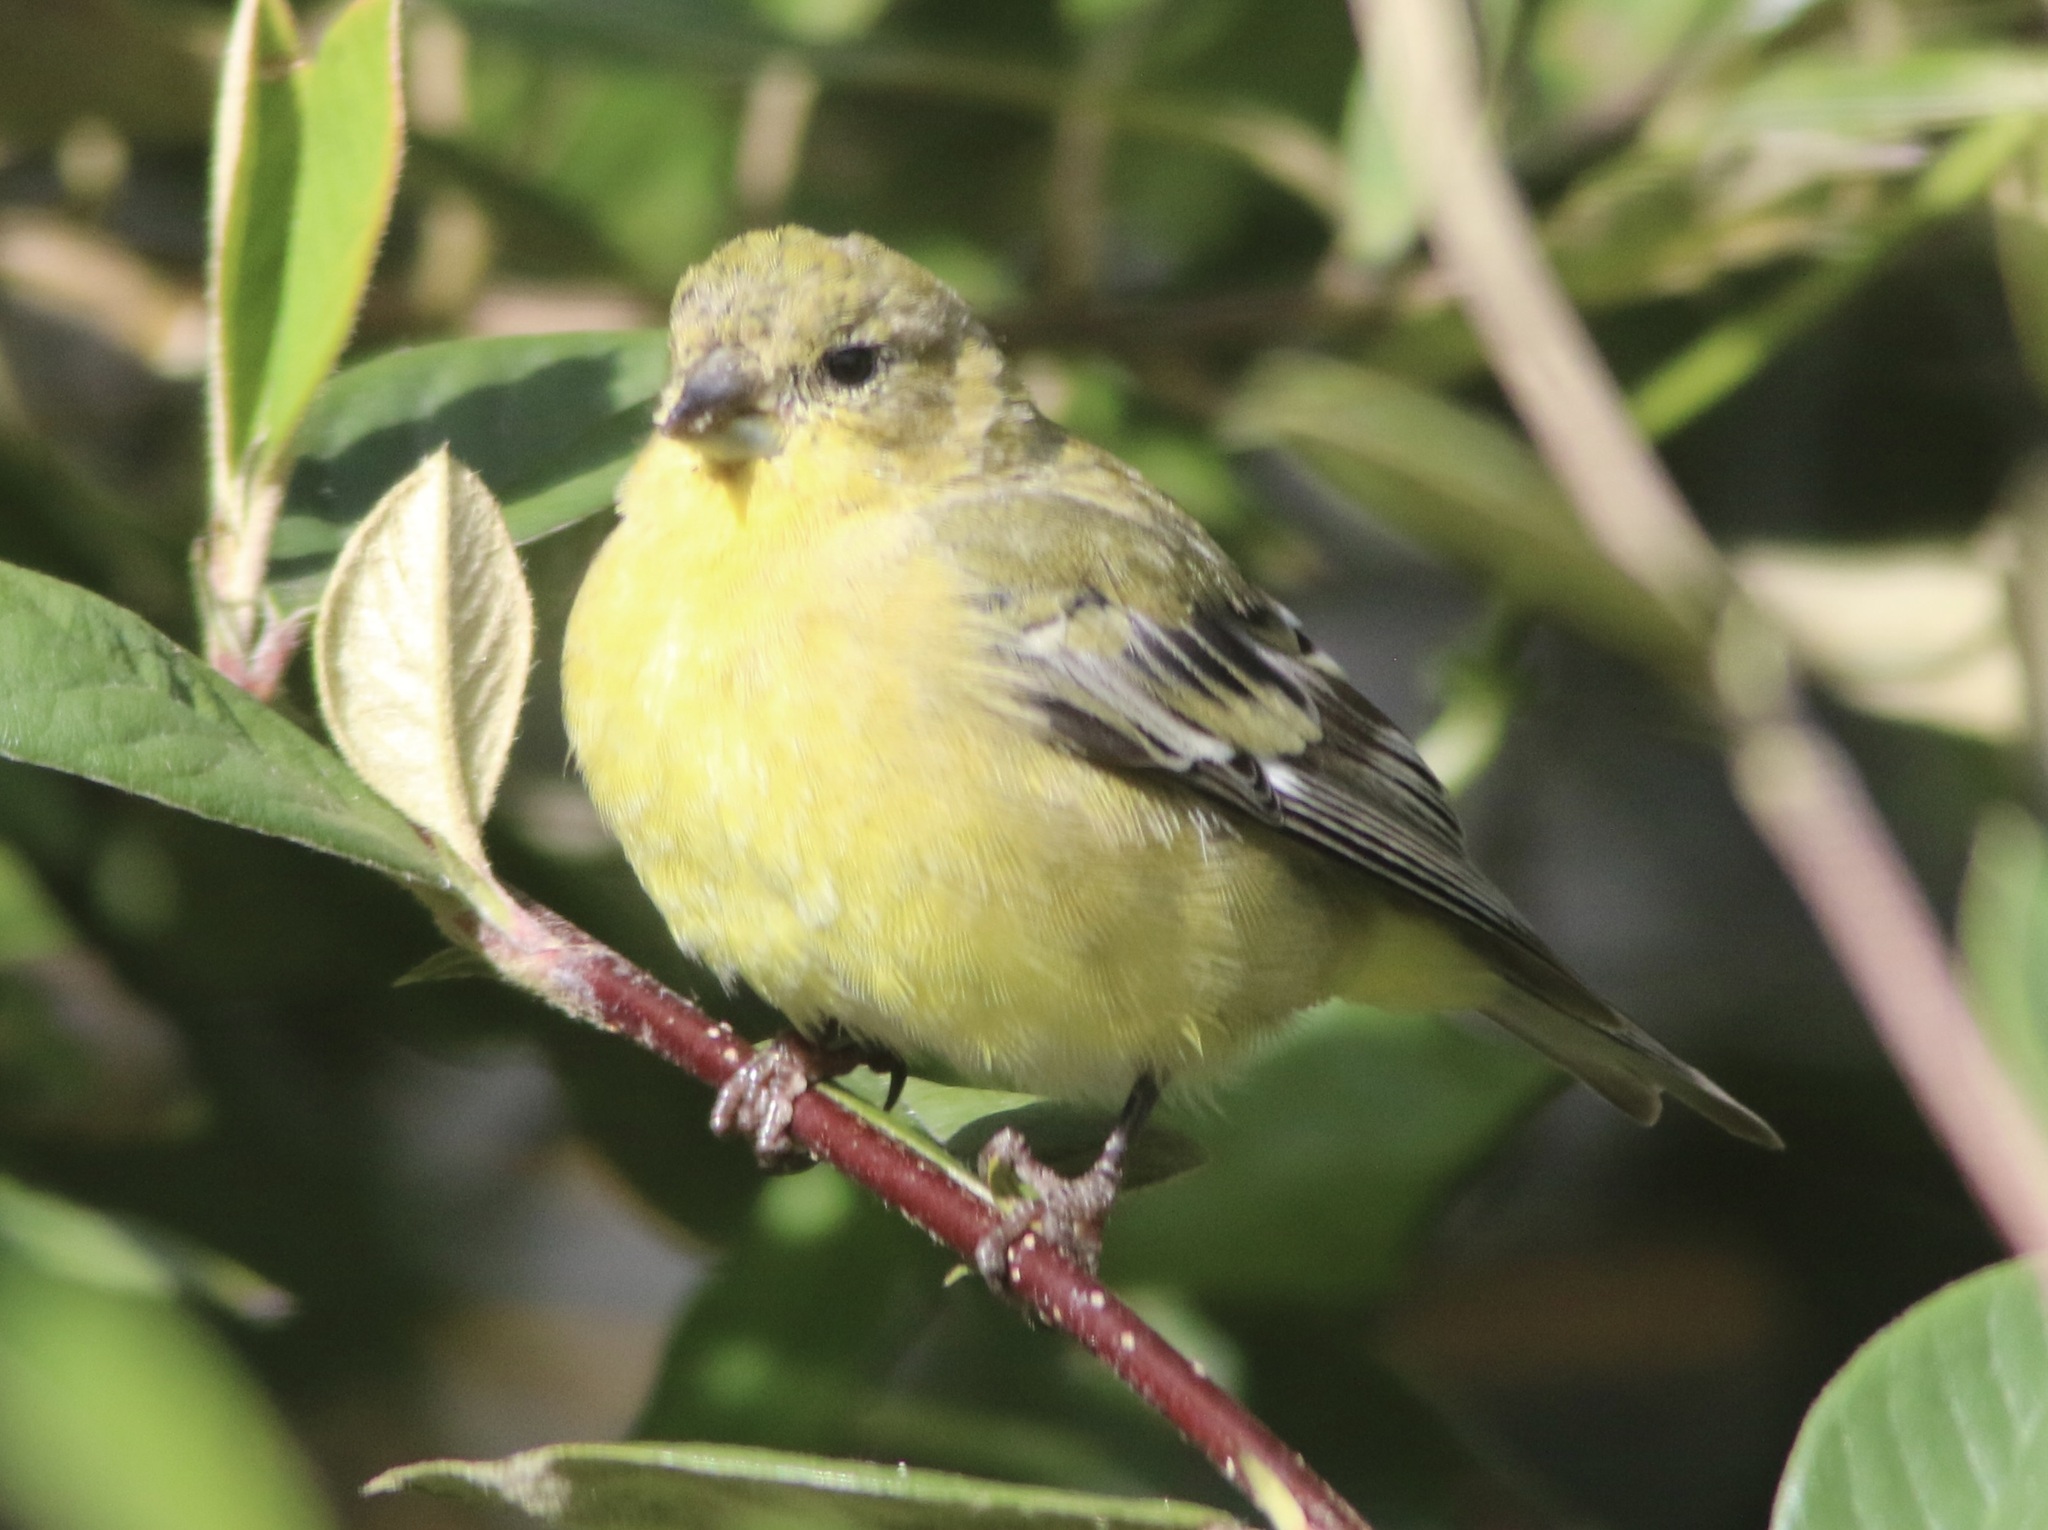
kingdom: Animalia
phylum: Chordata
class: Aves
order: Passeriformes
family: Fringillidae
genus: Spinus
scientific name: Spinus psaltria
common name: Lesser goldfinch
